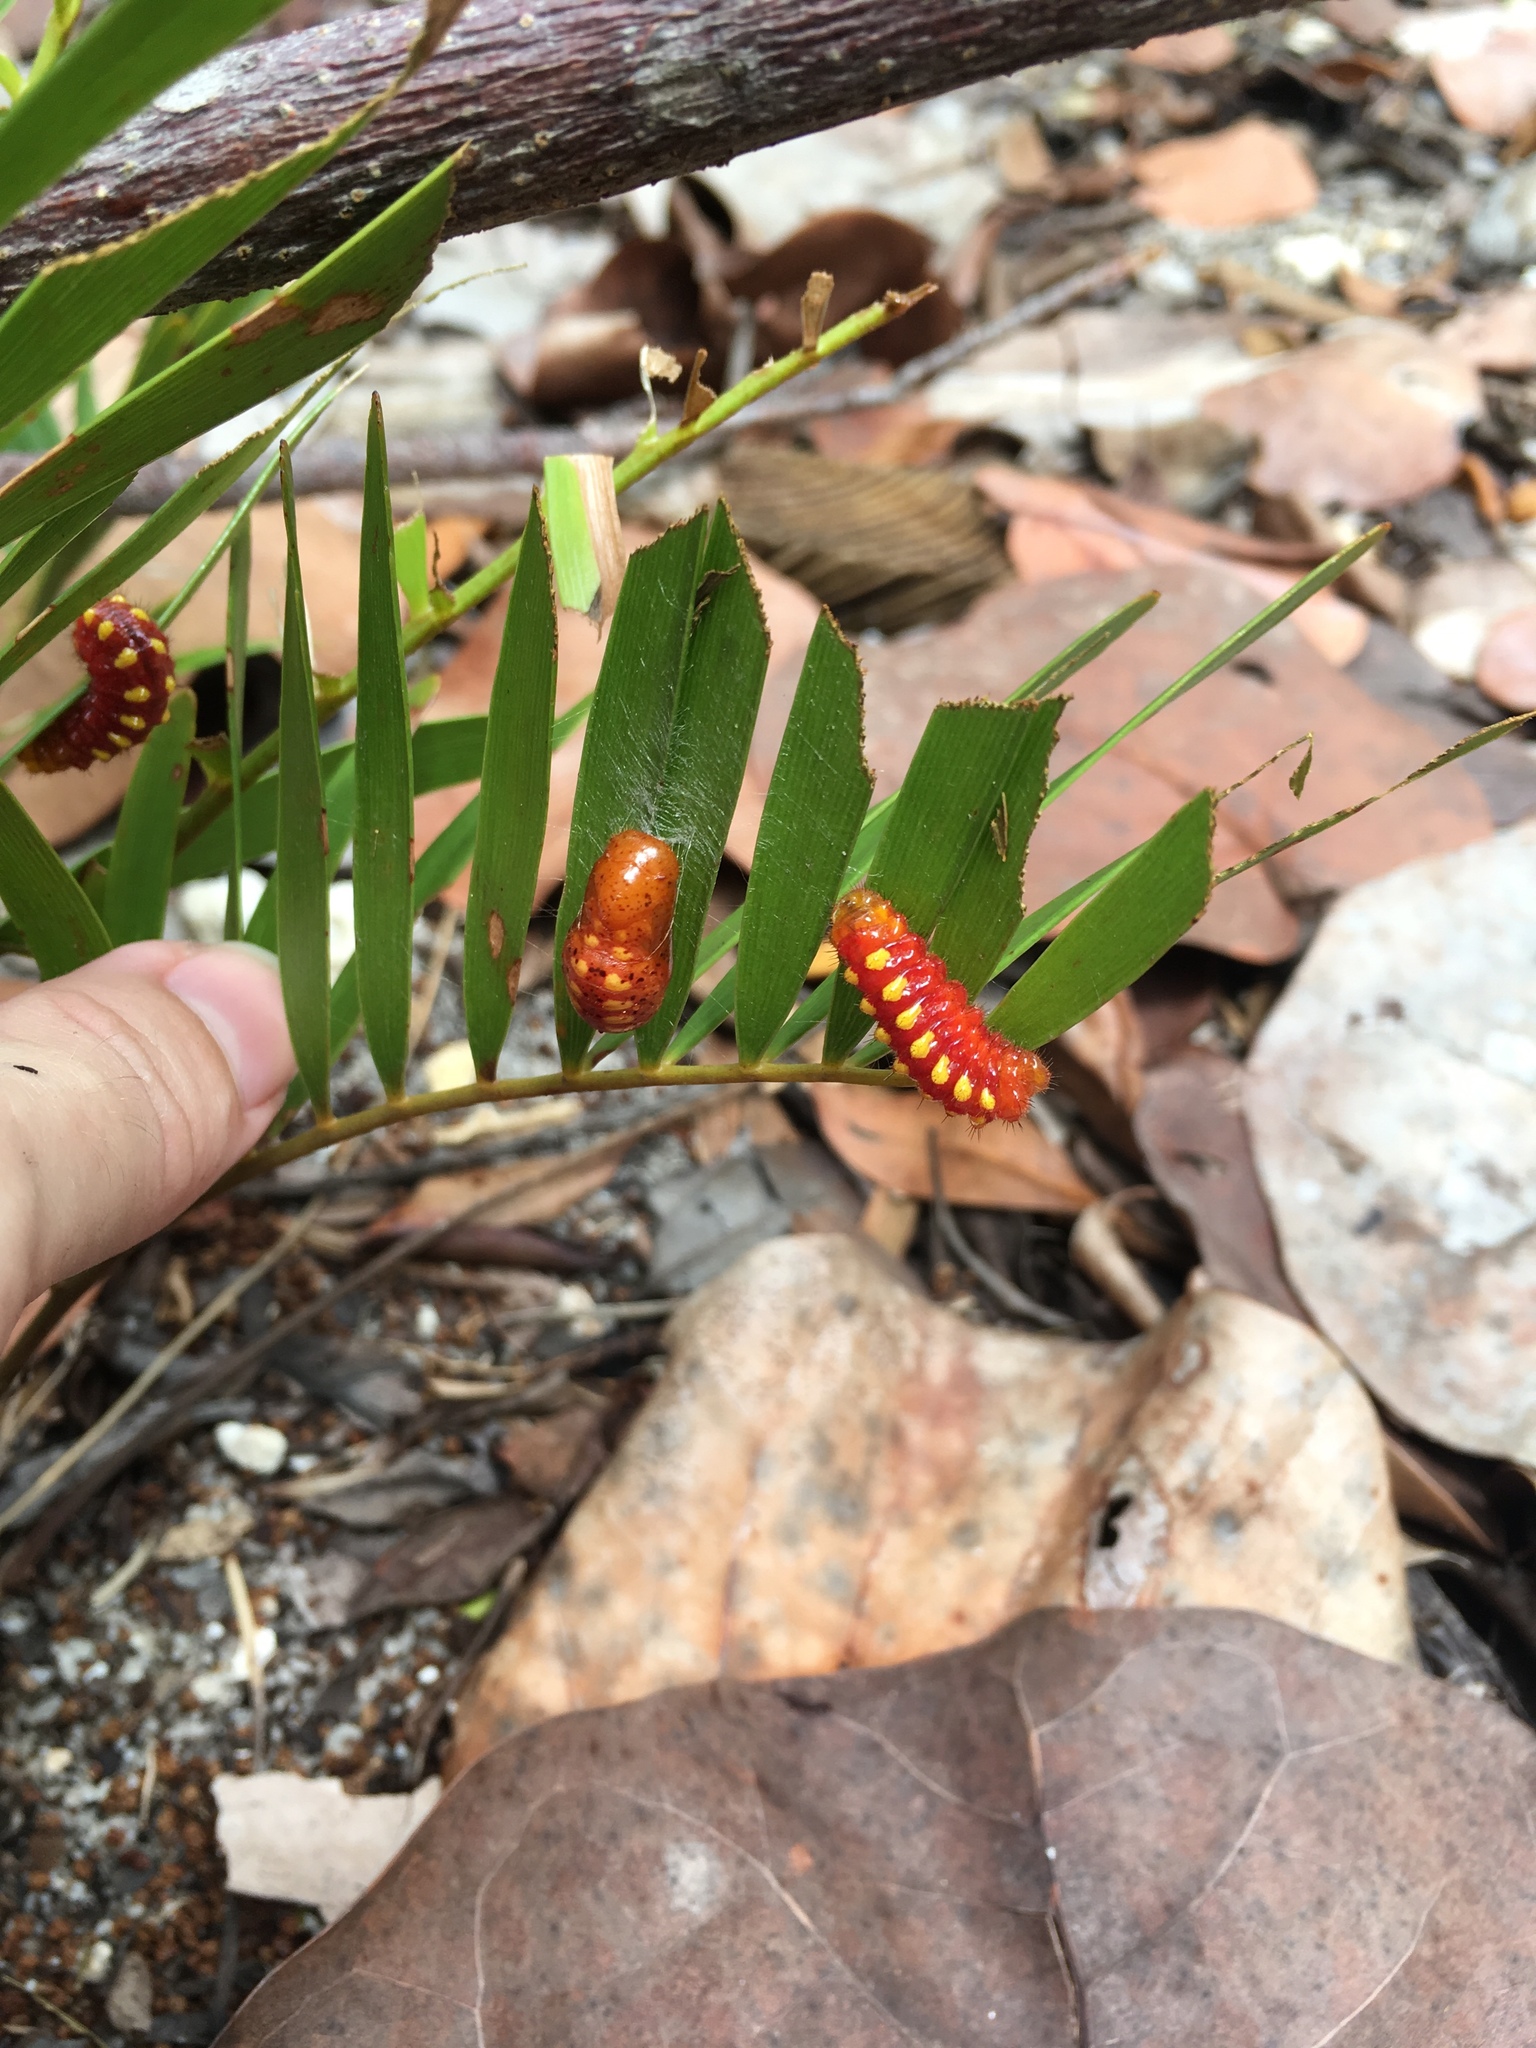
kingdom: Animalia
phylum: Arthropoda
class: Insecta
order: Lepidoptera
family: Lycaenidae
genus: Eumaeus
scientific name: Eumaeus atala
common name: Atala
